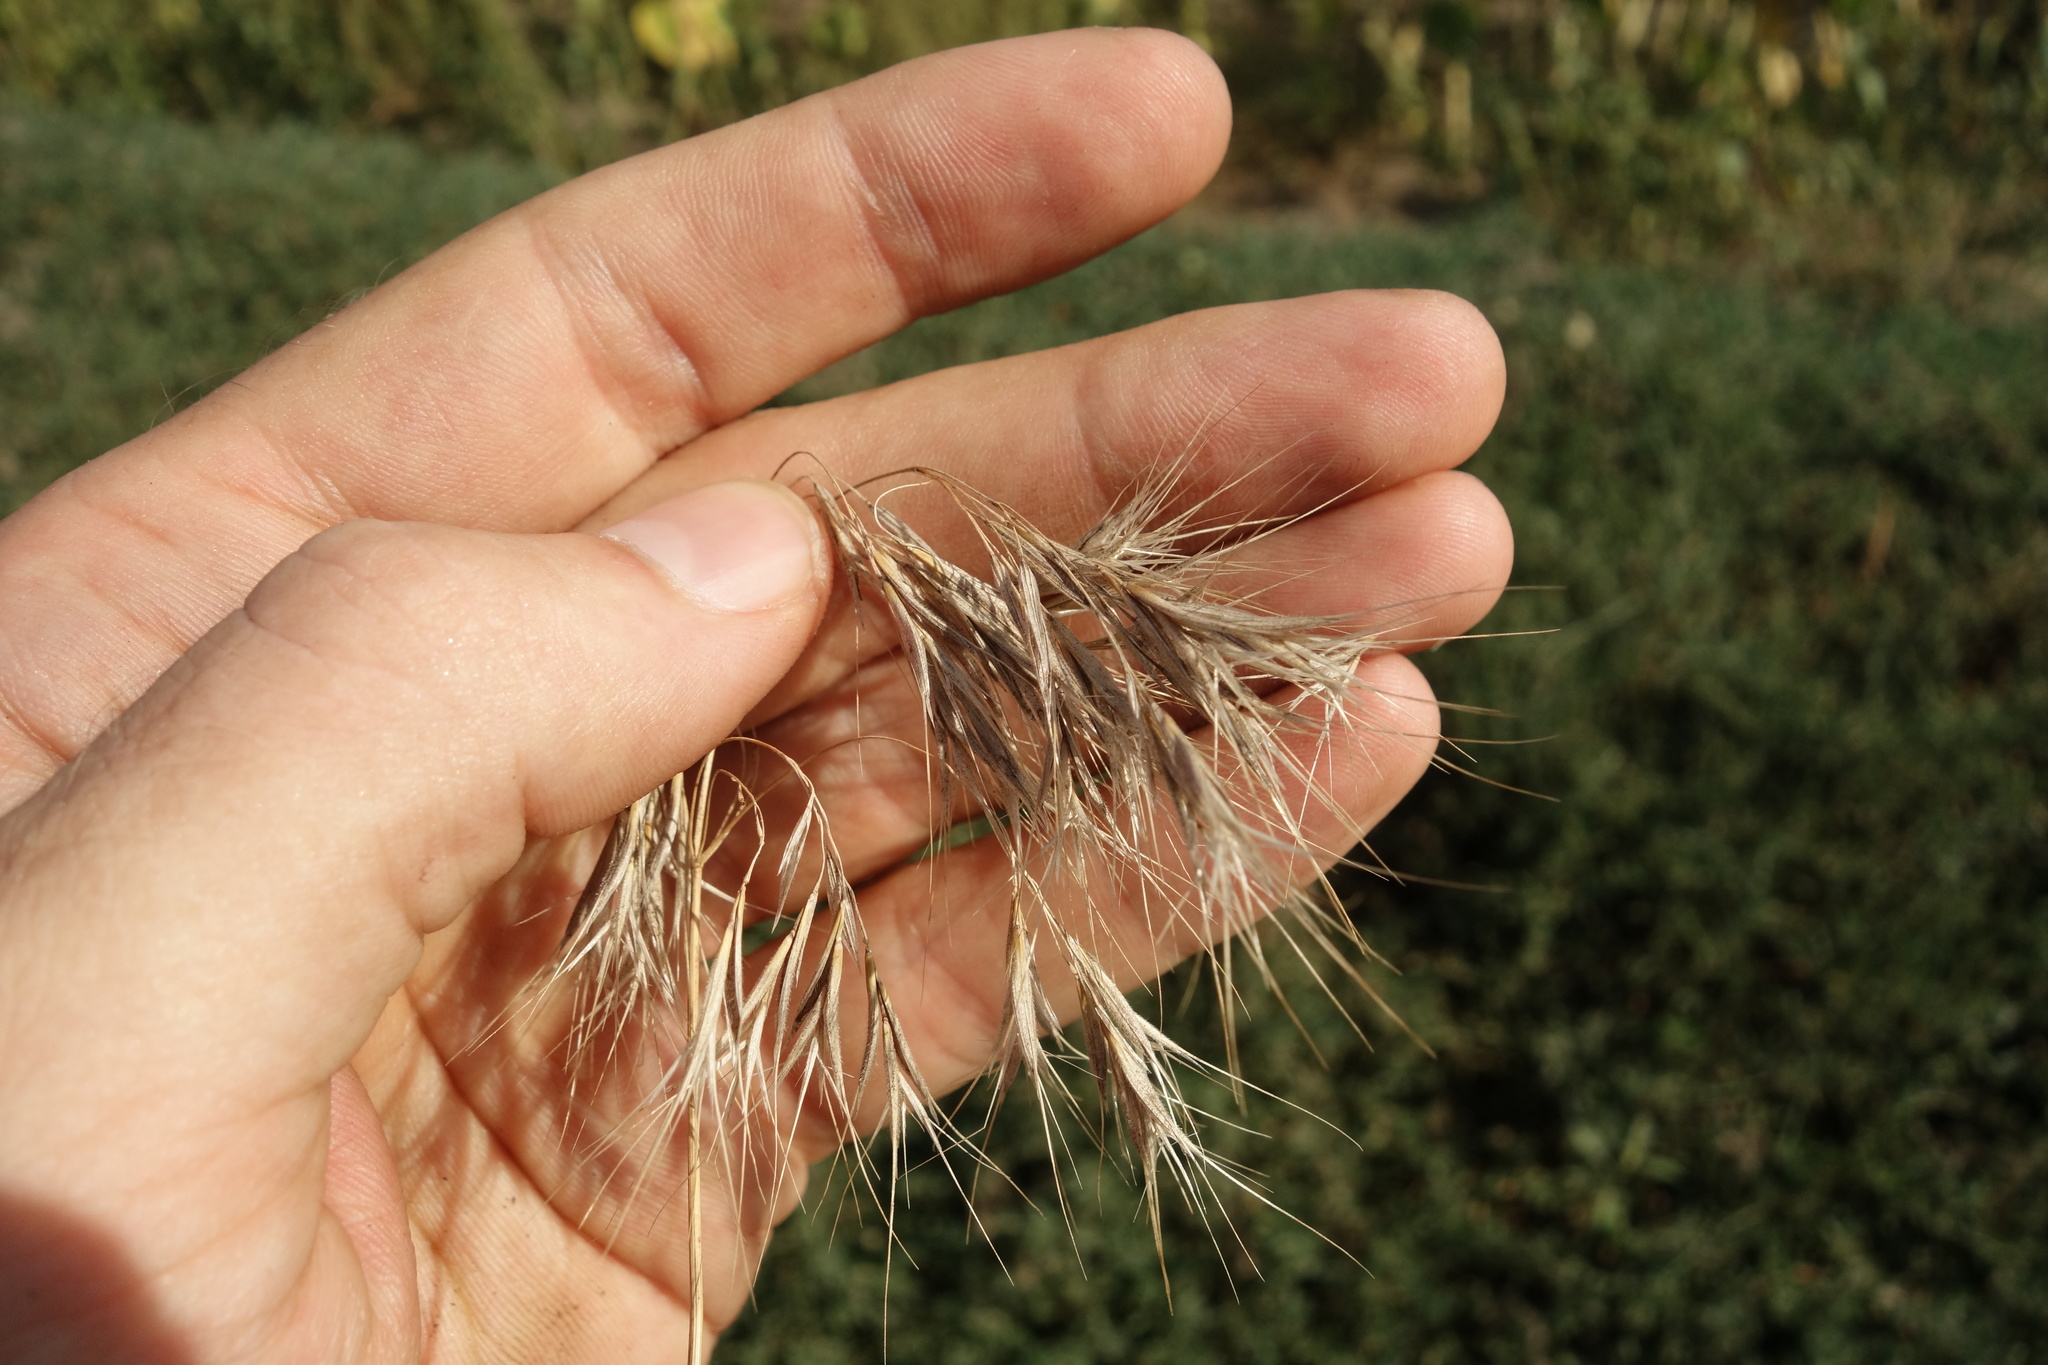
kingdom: Plantae
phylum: Tracheophyta
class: Liliopsida
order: Poales
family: Poaceae
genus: Bromus
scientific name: Bromus tectorum
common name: Cheatgrass
